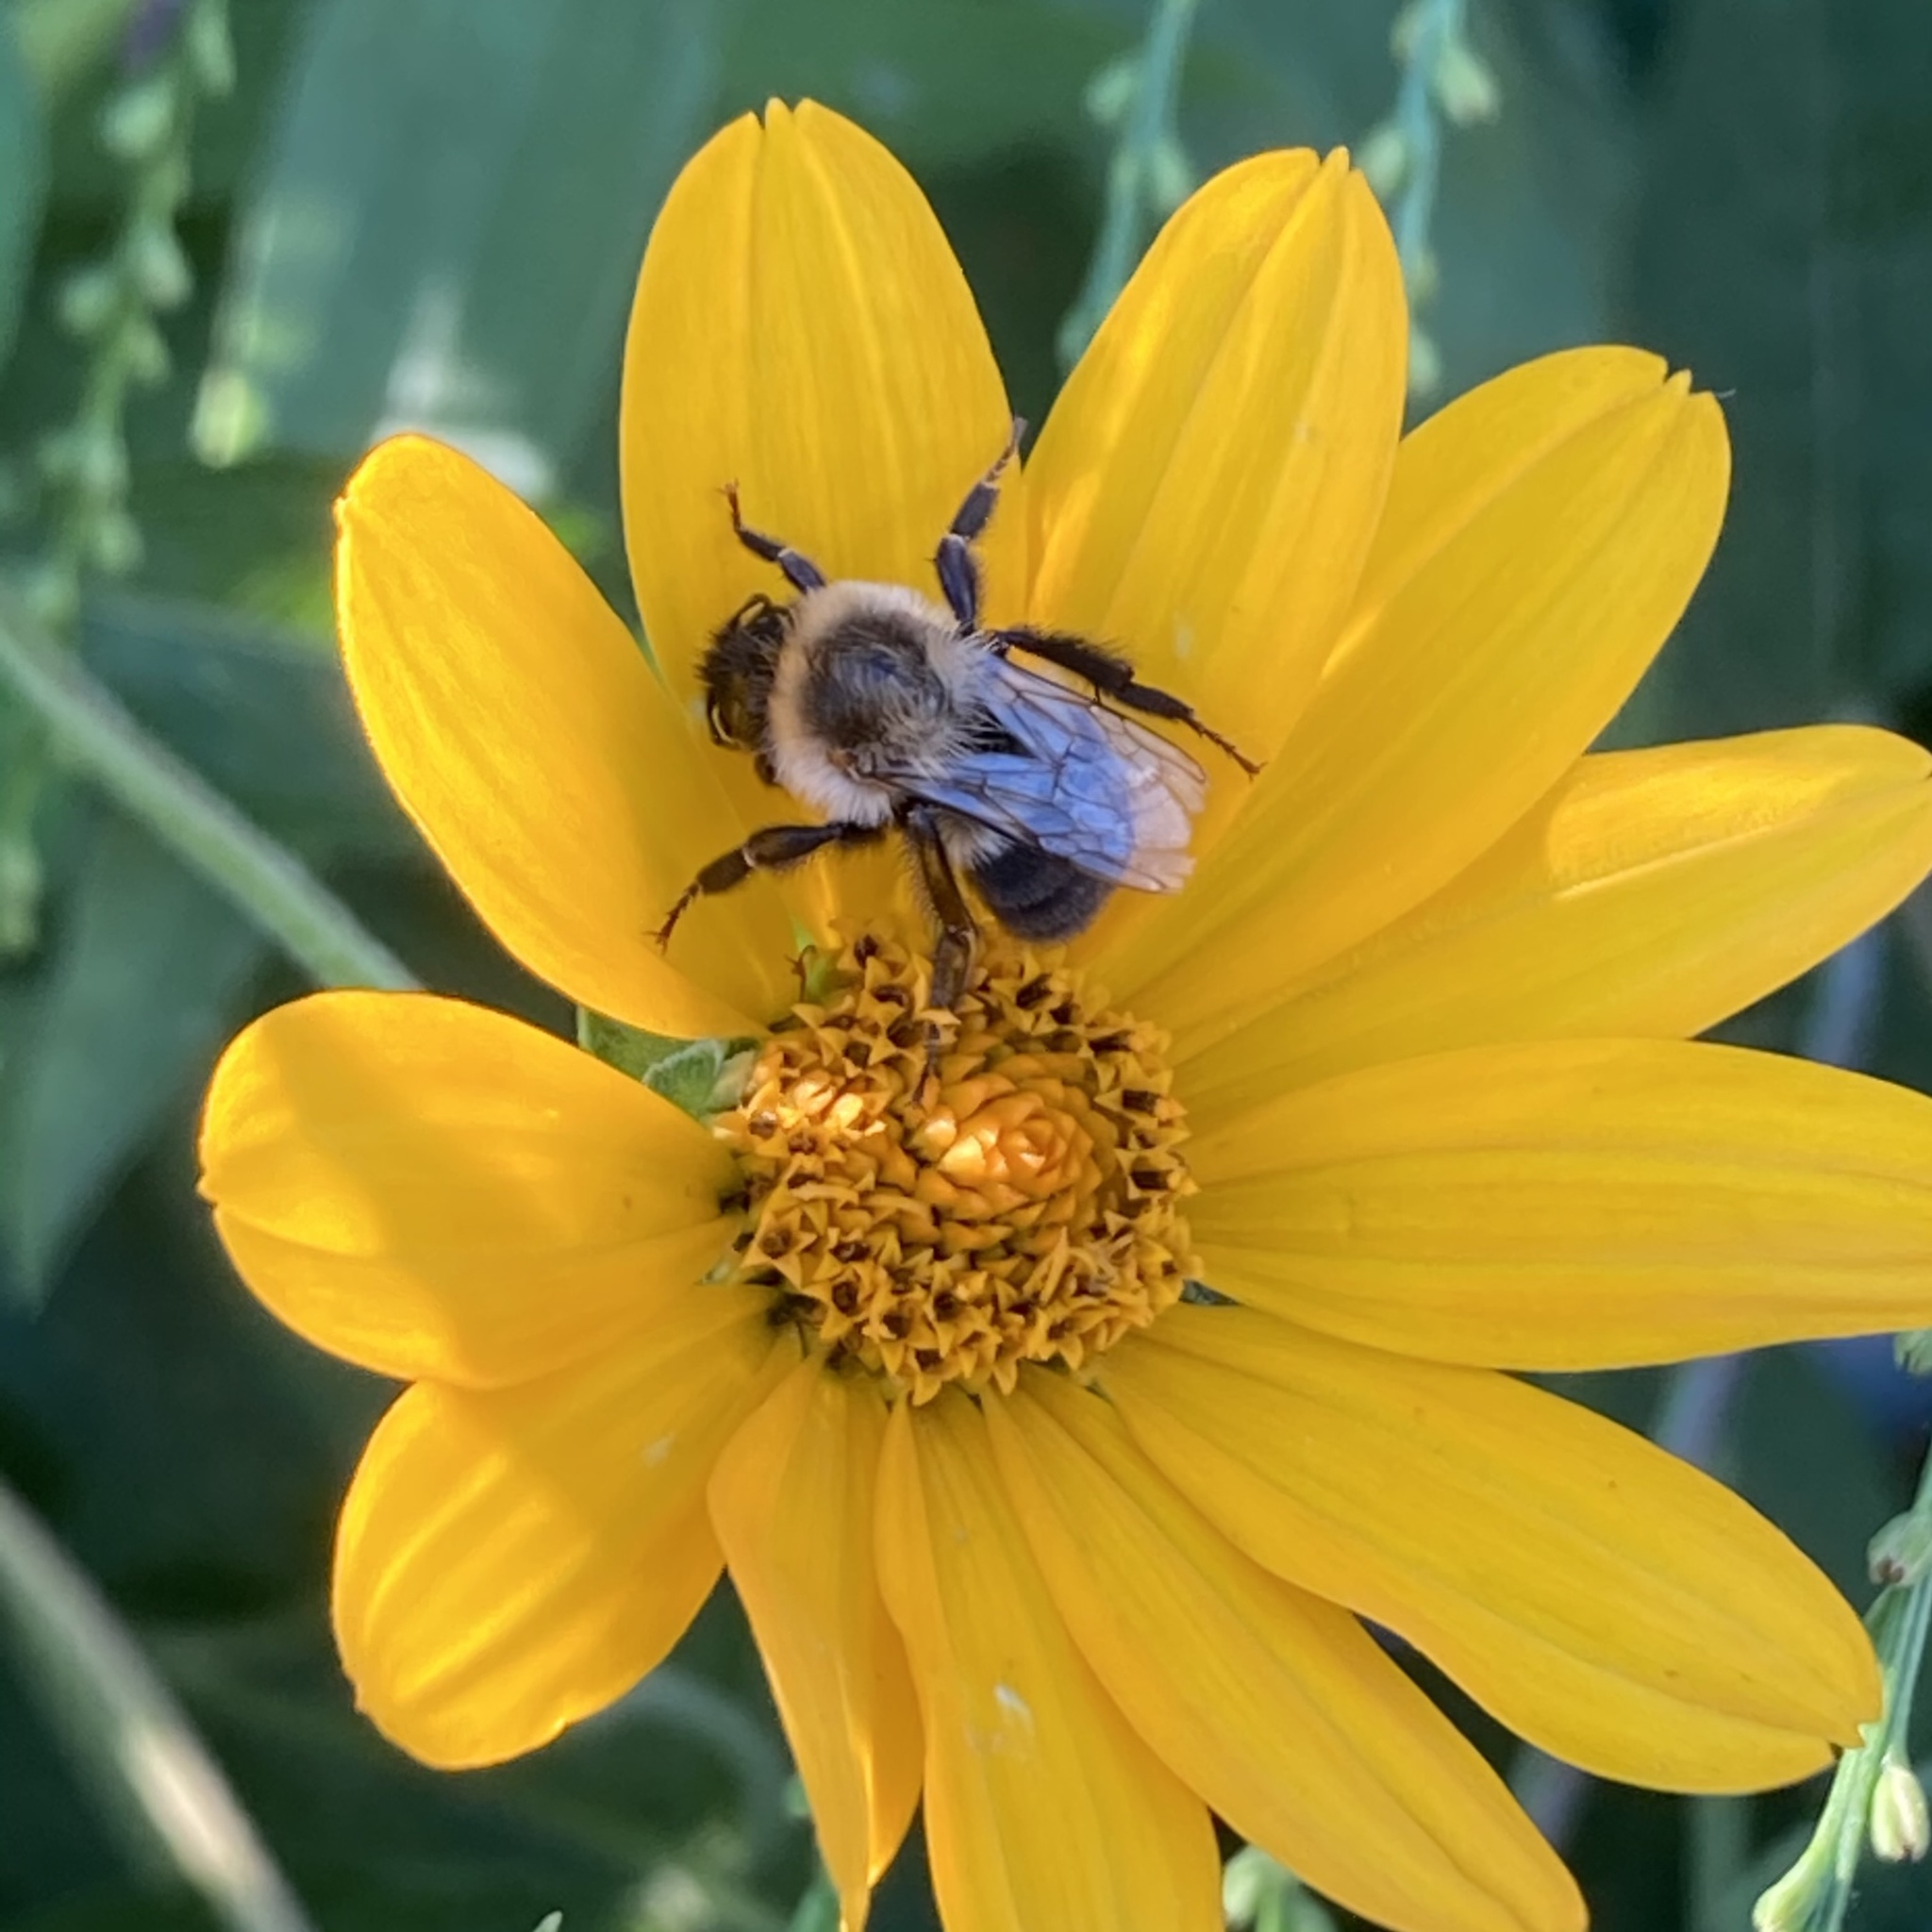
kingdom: Animalia
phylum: Arthropoda
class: Insecta
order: Hymenoptera
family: Apidae
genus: Bombus
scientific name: Bombus impatiens
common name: Common eastern bumble bee
